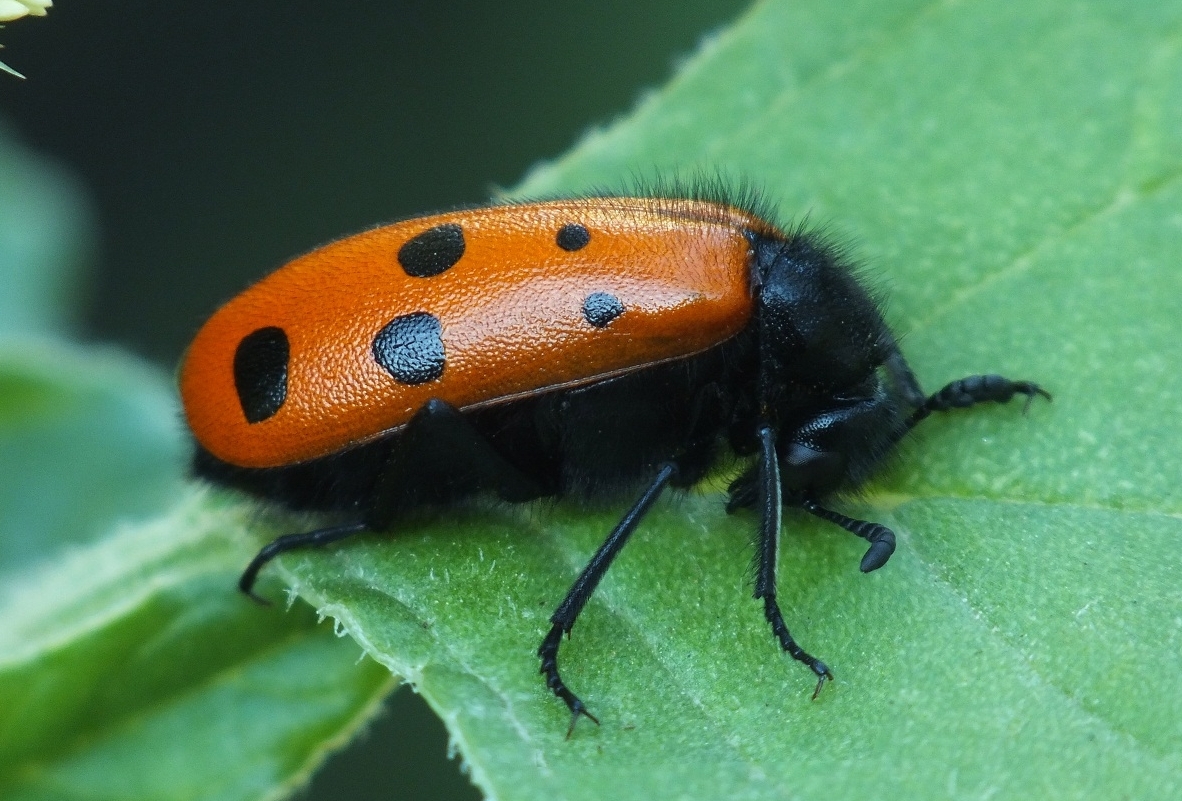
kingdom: Animalia
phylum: Arthropoda
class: Insecta
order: Coleoptera
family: Meloidae
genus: Mylabris
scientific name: Mylabris fabricii
